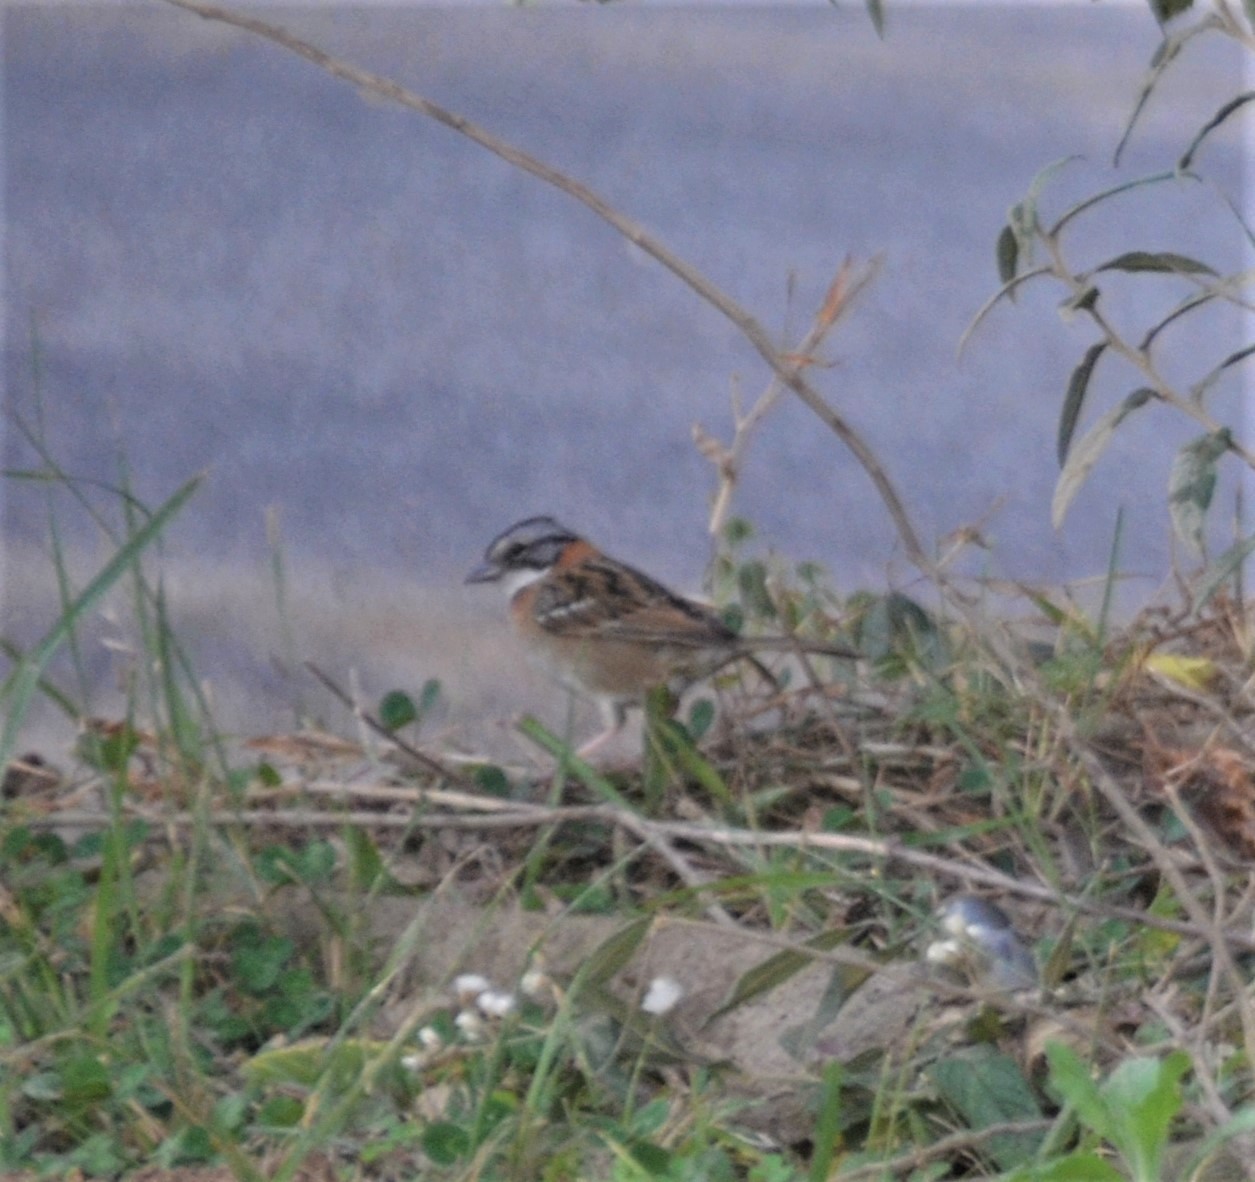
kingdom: Animalia
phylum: Chordata
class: Aves
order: Passeriformes
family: Passerellidae
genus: Zonotrichia
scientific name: Zonotrichia capensis
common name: Rufous-collared sparrow
